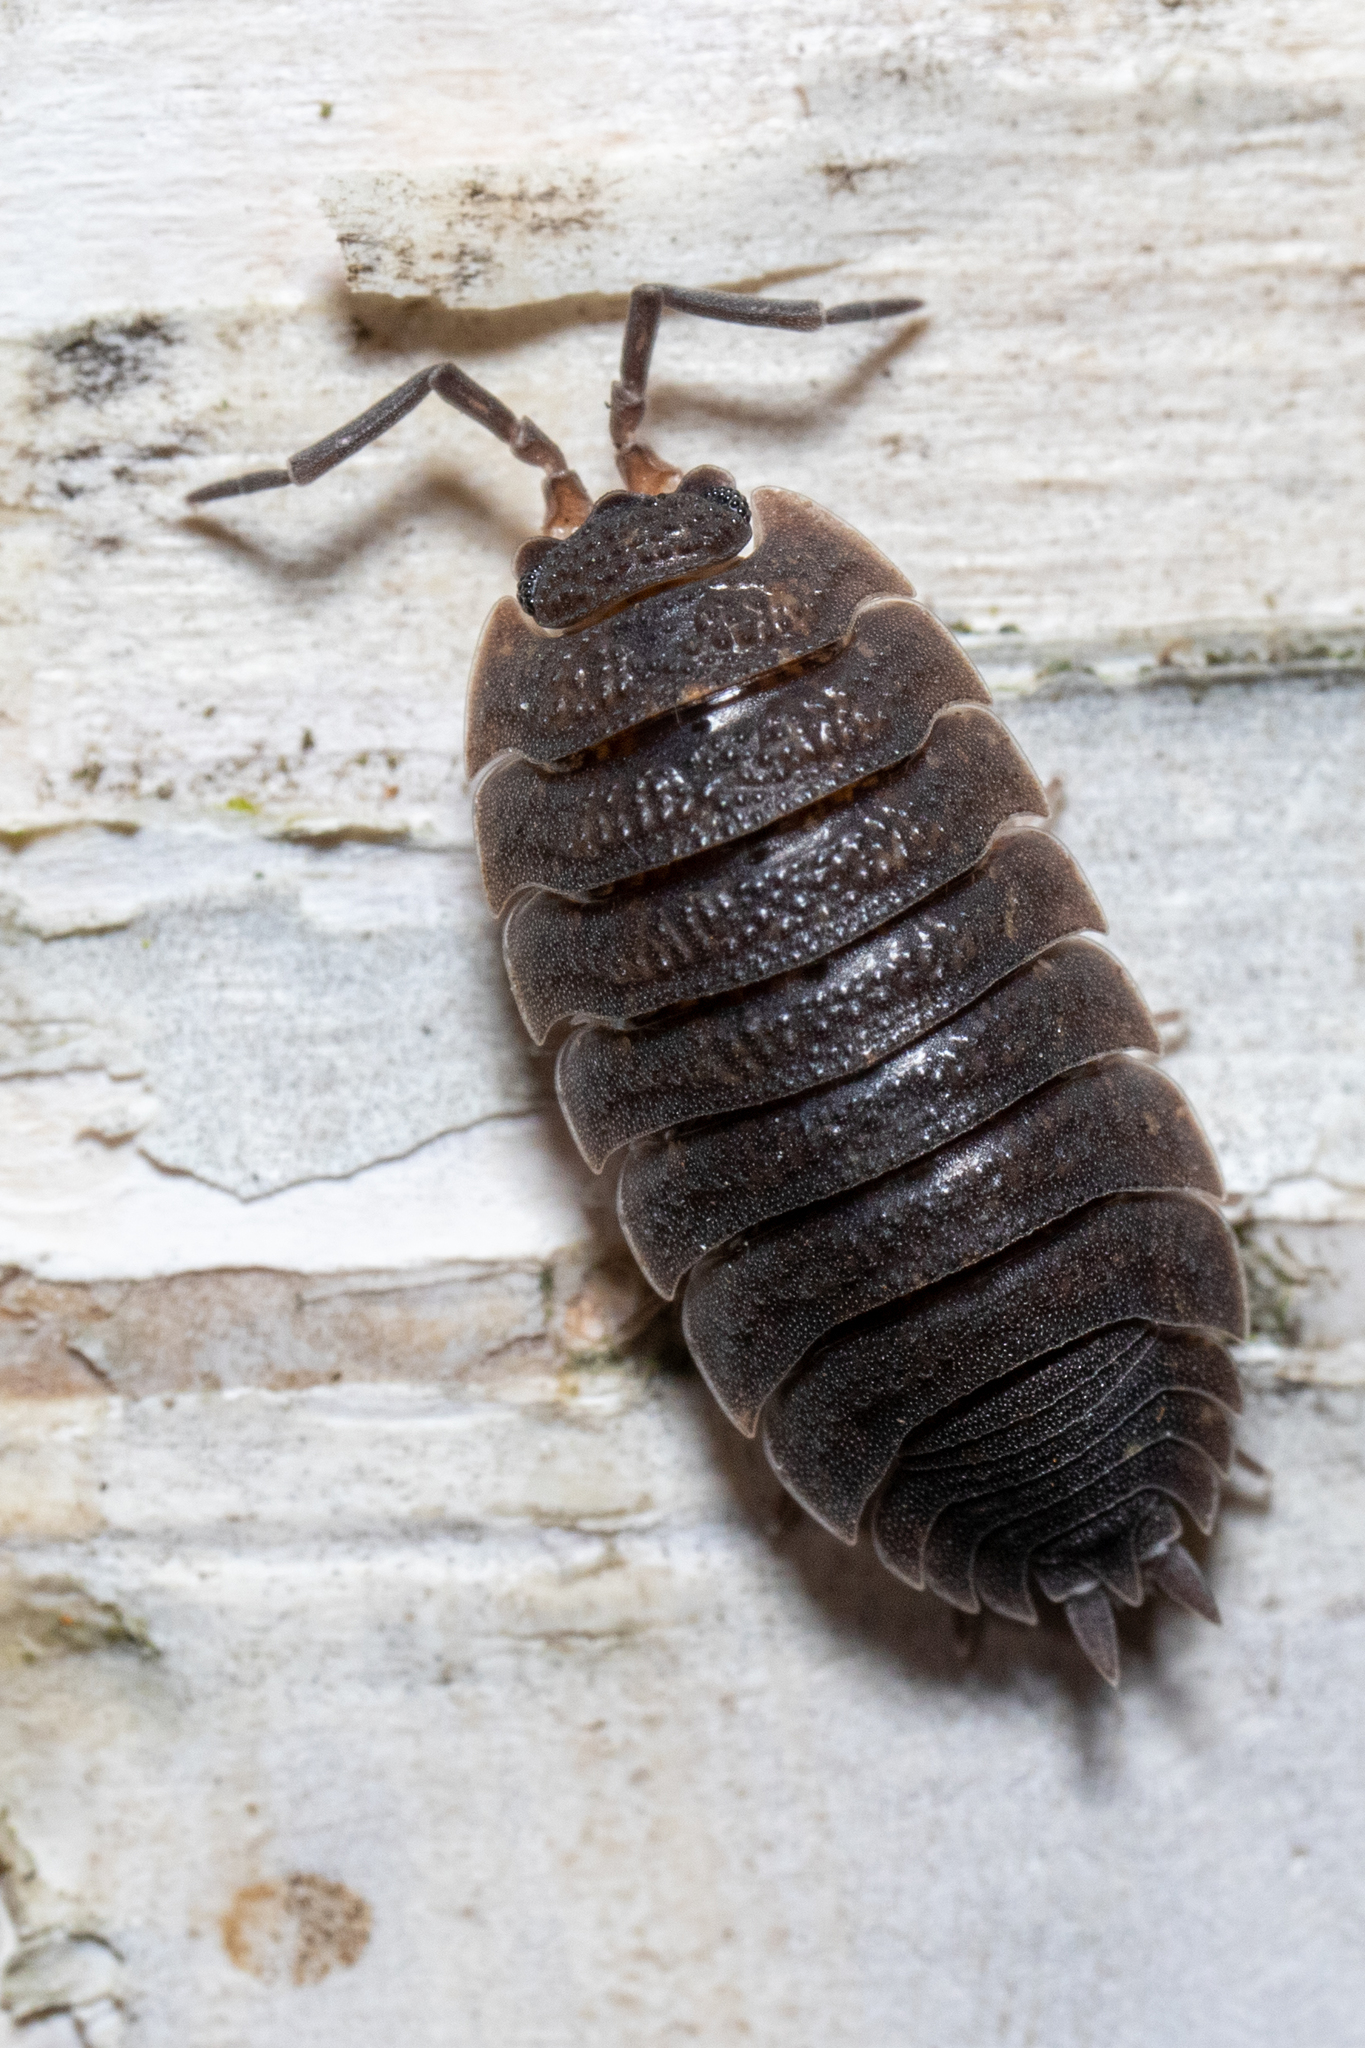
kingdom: Animalia
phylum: Arthropoda
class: Malacostraca
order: Isopoda
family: Porcellionidae
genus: Porcellio
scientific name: Porcellio scaber
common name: Common rough woodlouse
